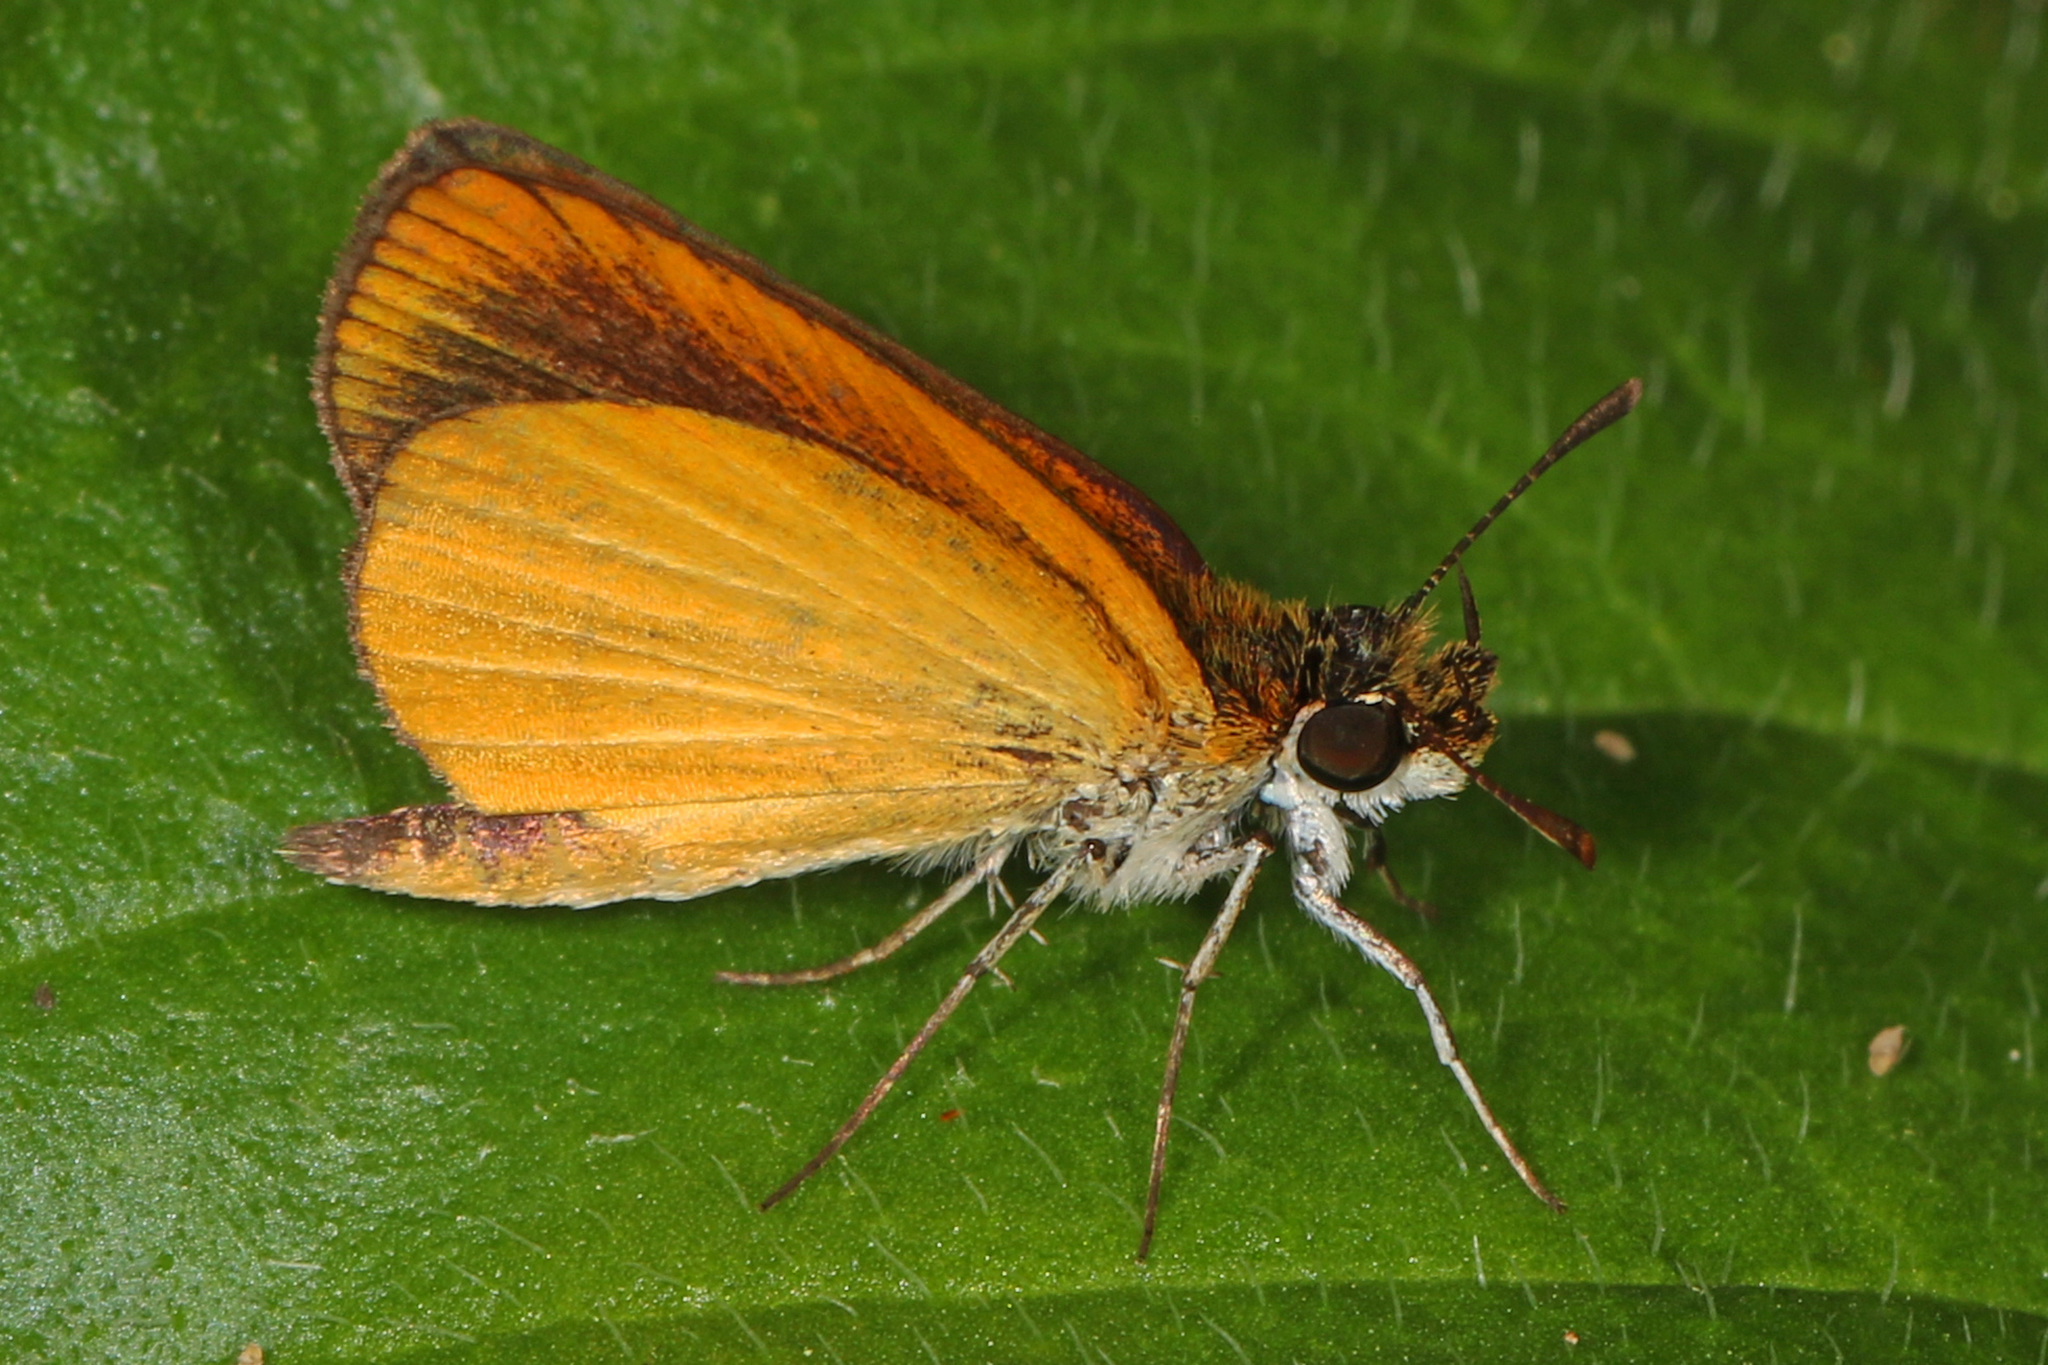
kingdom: Animalia
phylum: Arthropoda
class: Insecta
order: Lepidoptera
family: Hesperiidae
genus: Ancyloxypha
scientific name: Ancyloxypha numitor
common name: Least skipper
